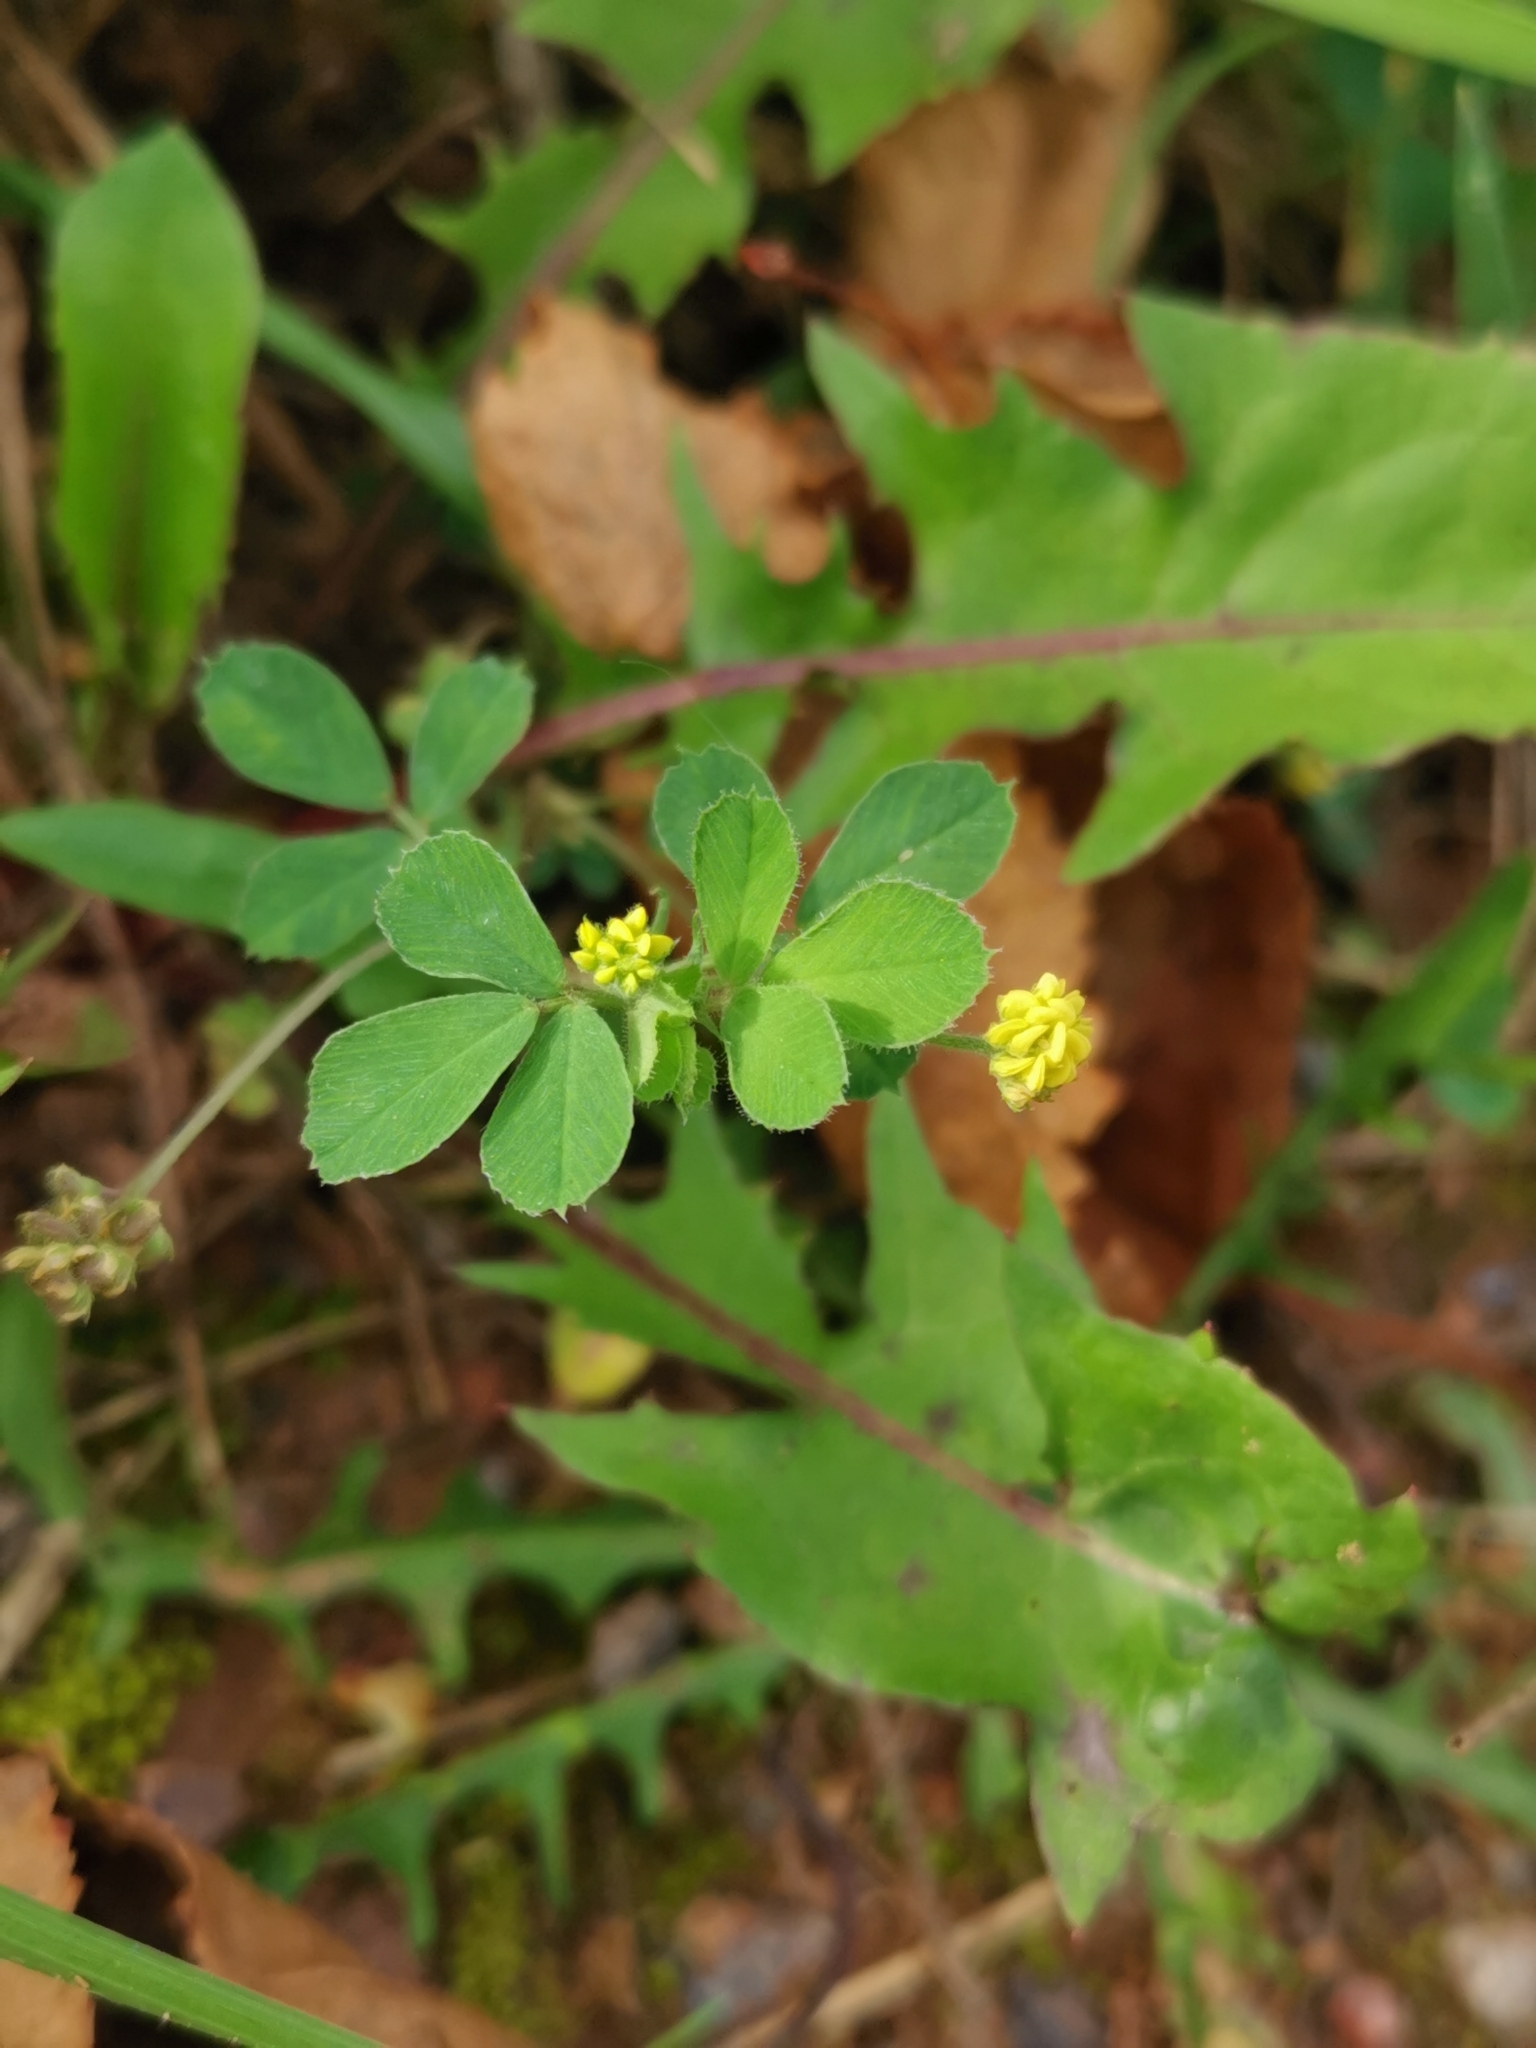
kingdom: Plantae
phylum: Tracheophyta
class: Magnoliopsida
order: Fabales
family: Fabaceae
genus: Medicago
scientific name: Medicago lupulina
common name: Black medick
